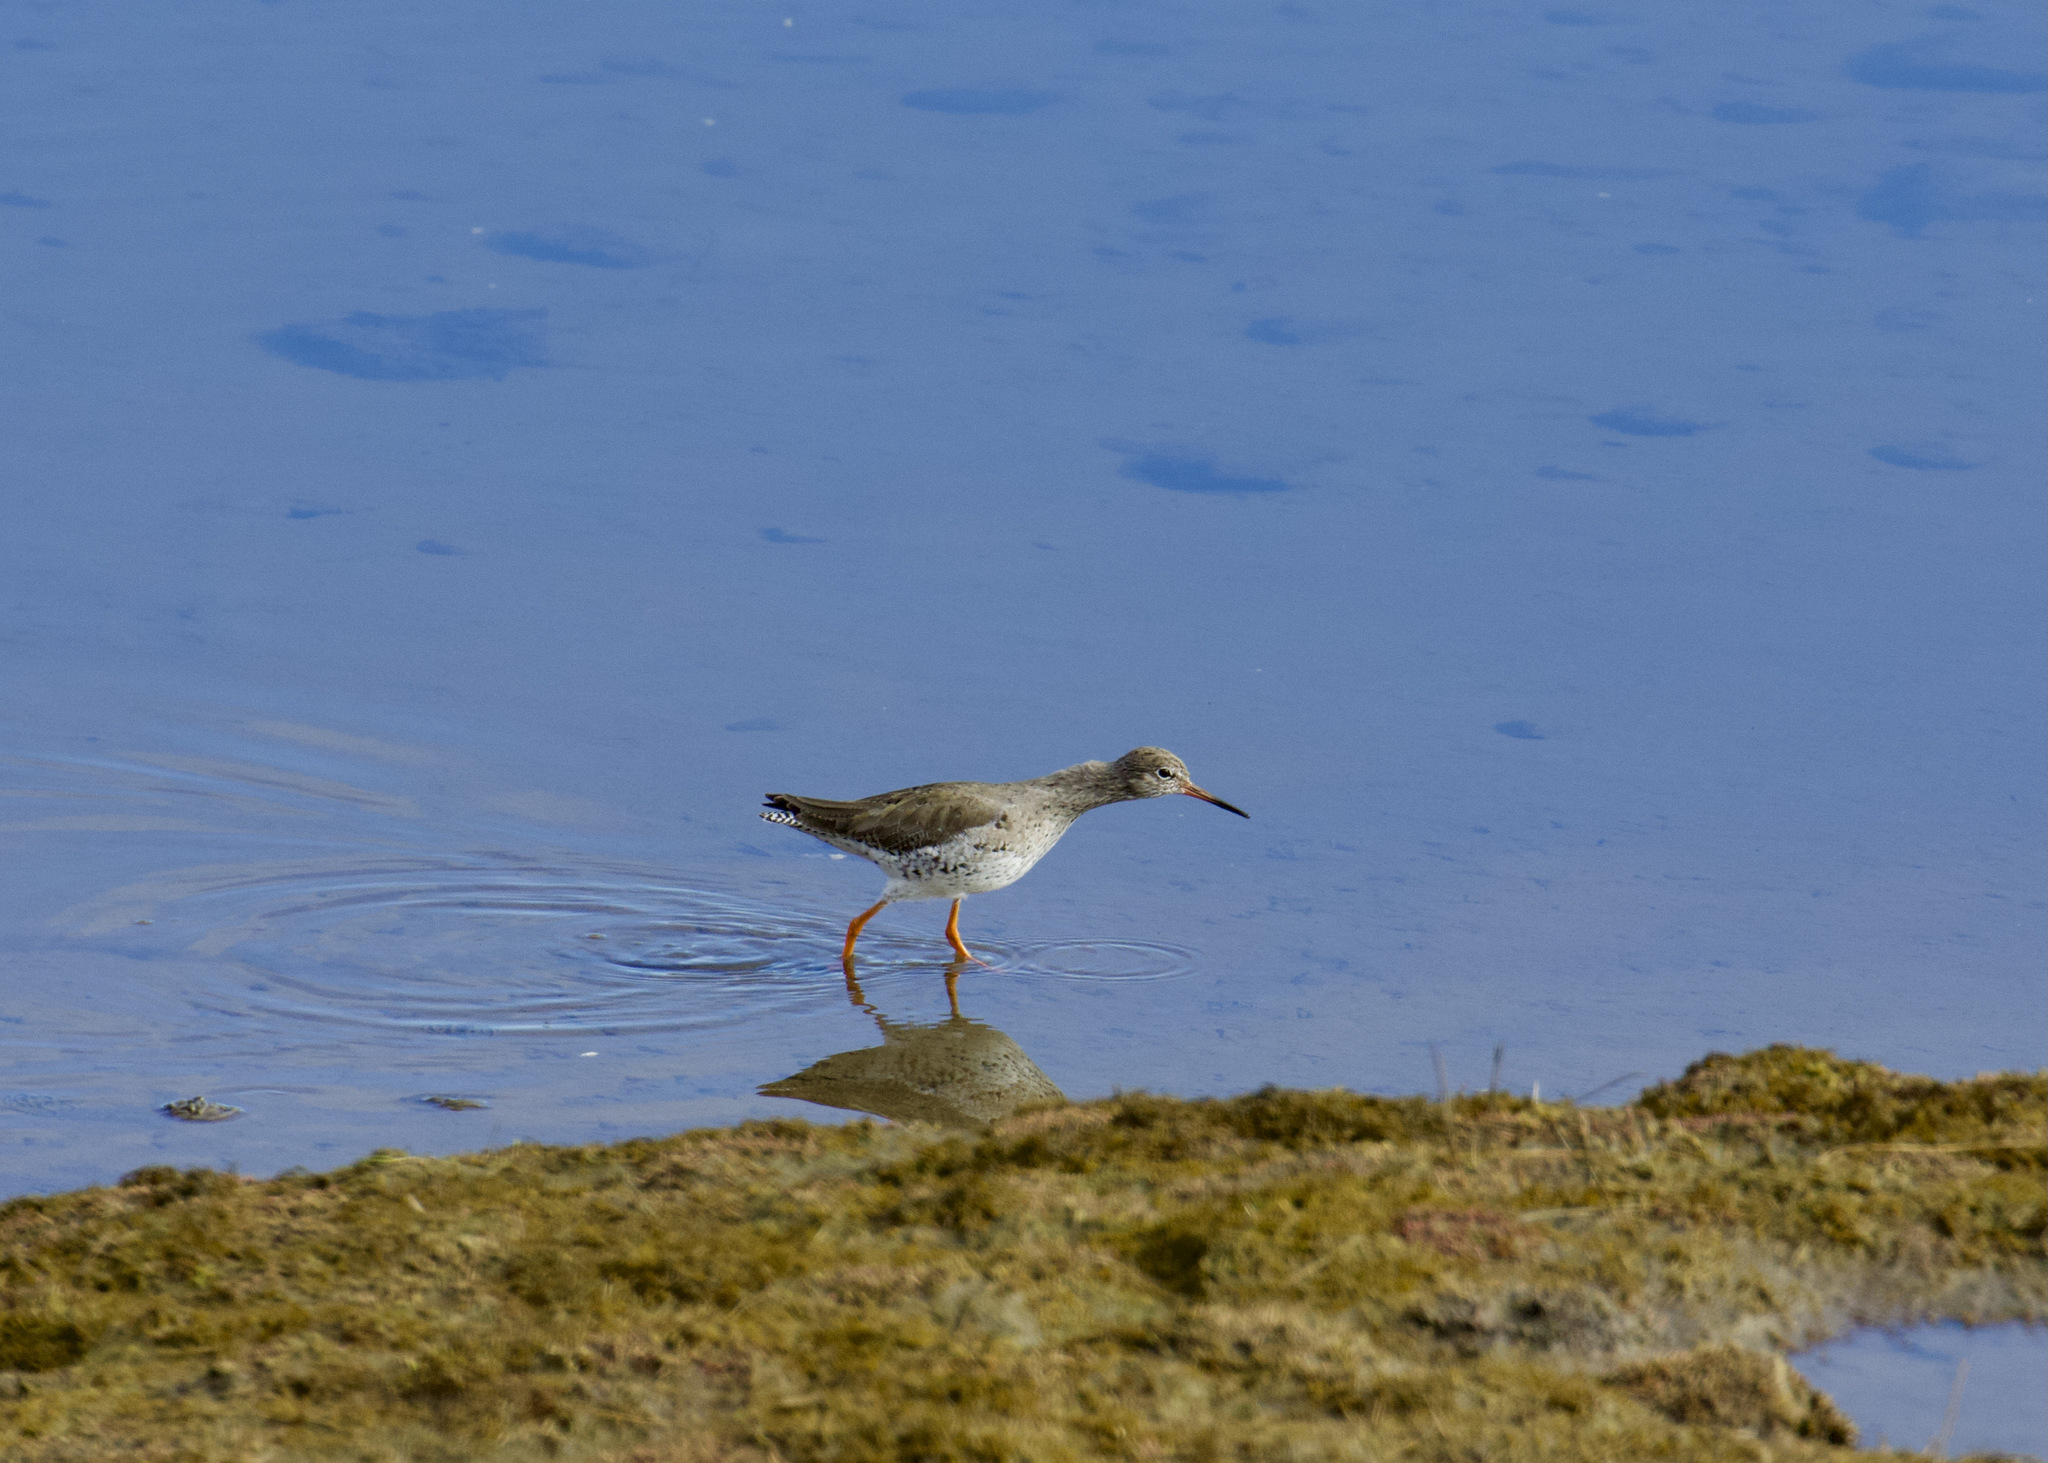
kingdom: Animalia
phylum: Chordata
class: Aves
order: Charadriiformes
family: Scolopacidae
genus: Tringa
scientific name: Tringa totanus
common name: Common redshank
